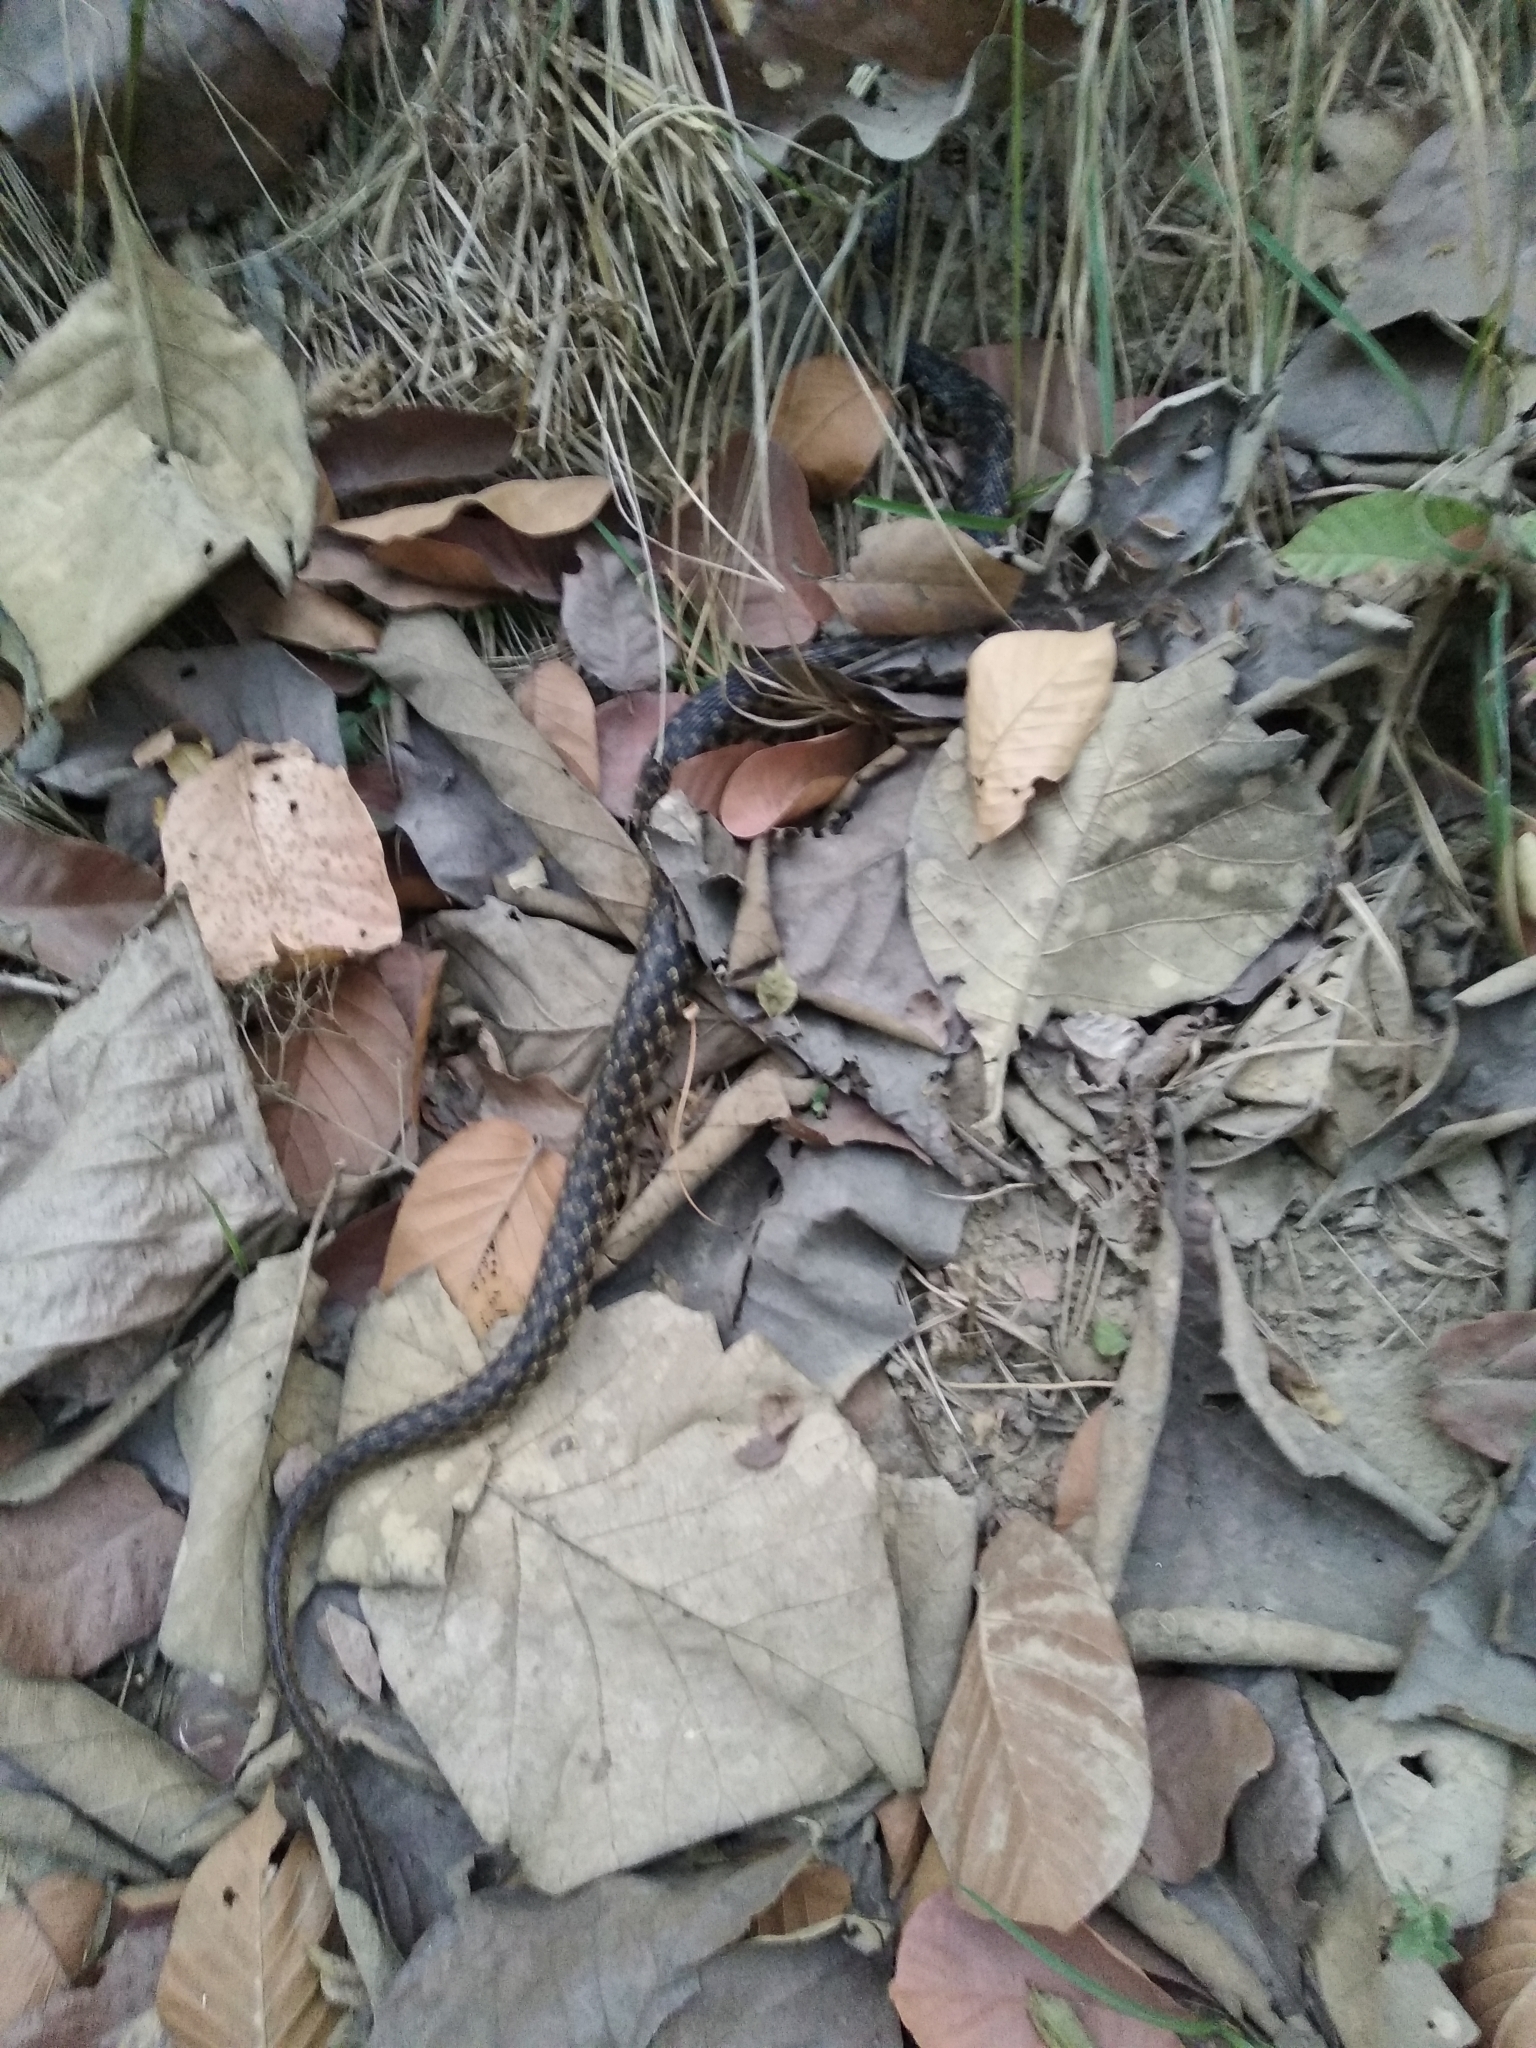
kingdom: Animalia
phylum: Chordata
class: Squamata
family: Colubridae
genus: Fowlea
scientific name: Fowlea piscator
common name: Asiatic water snake
